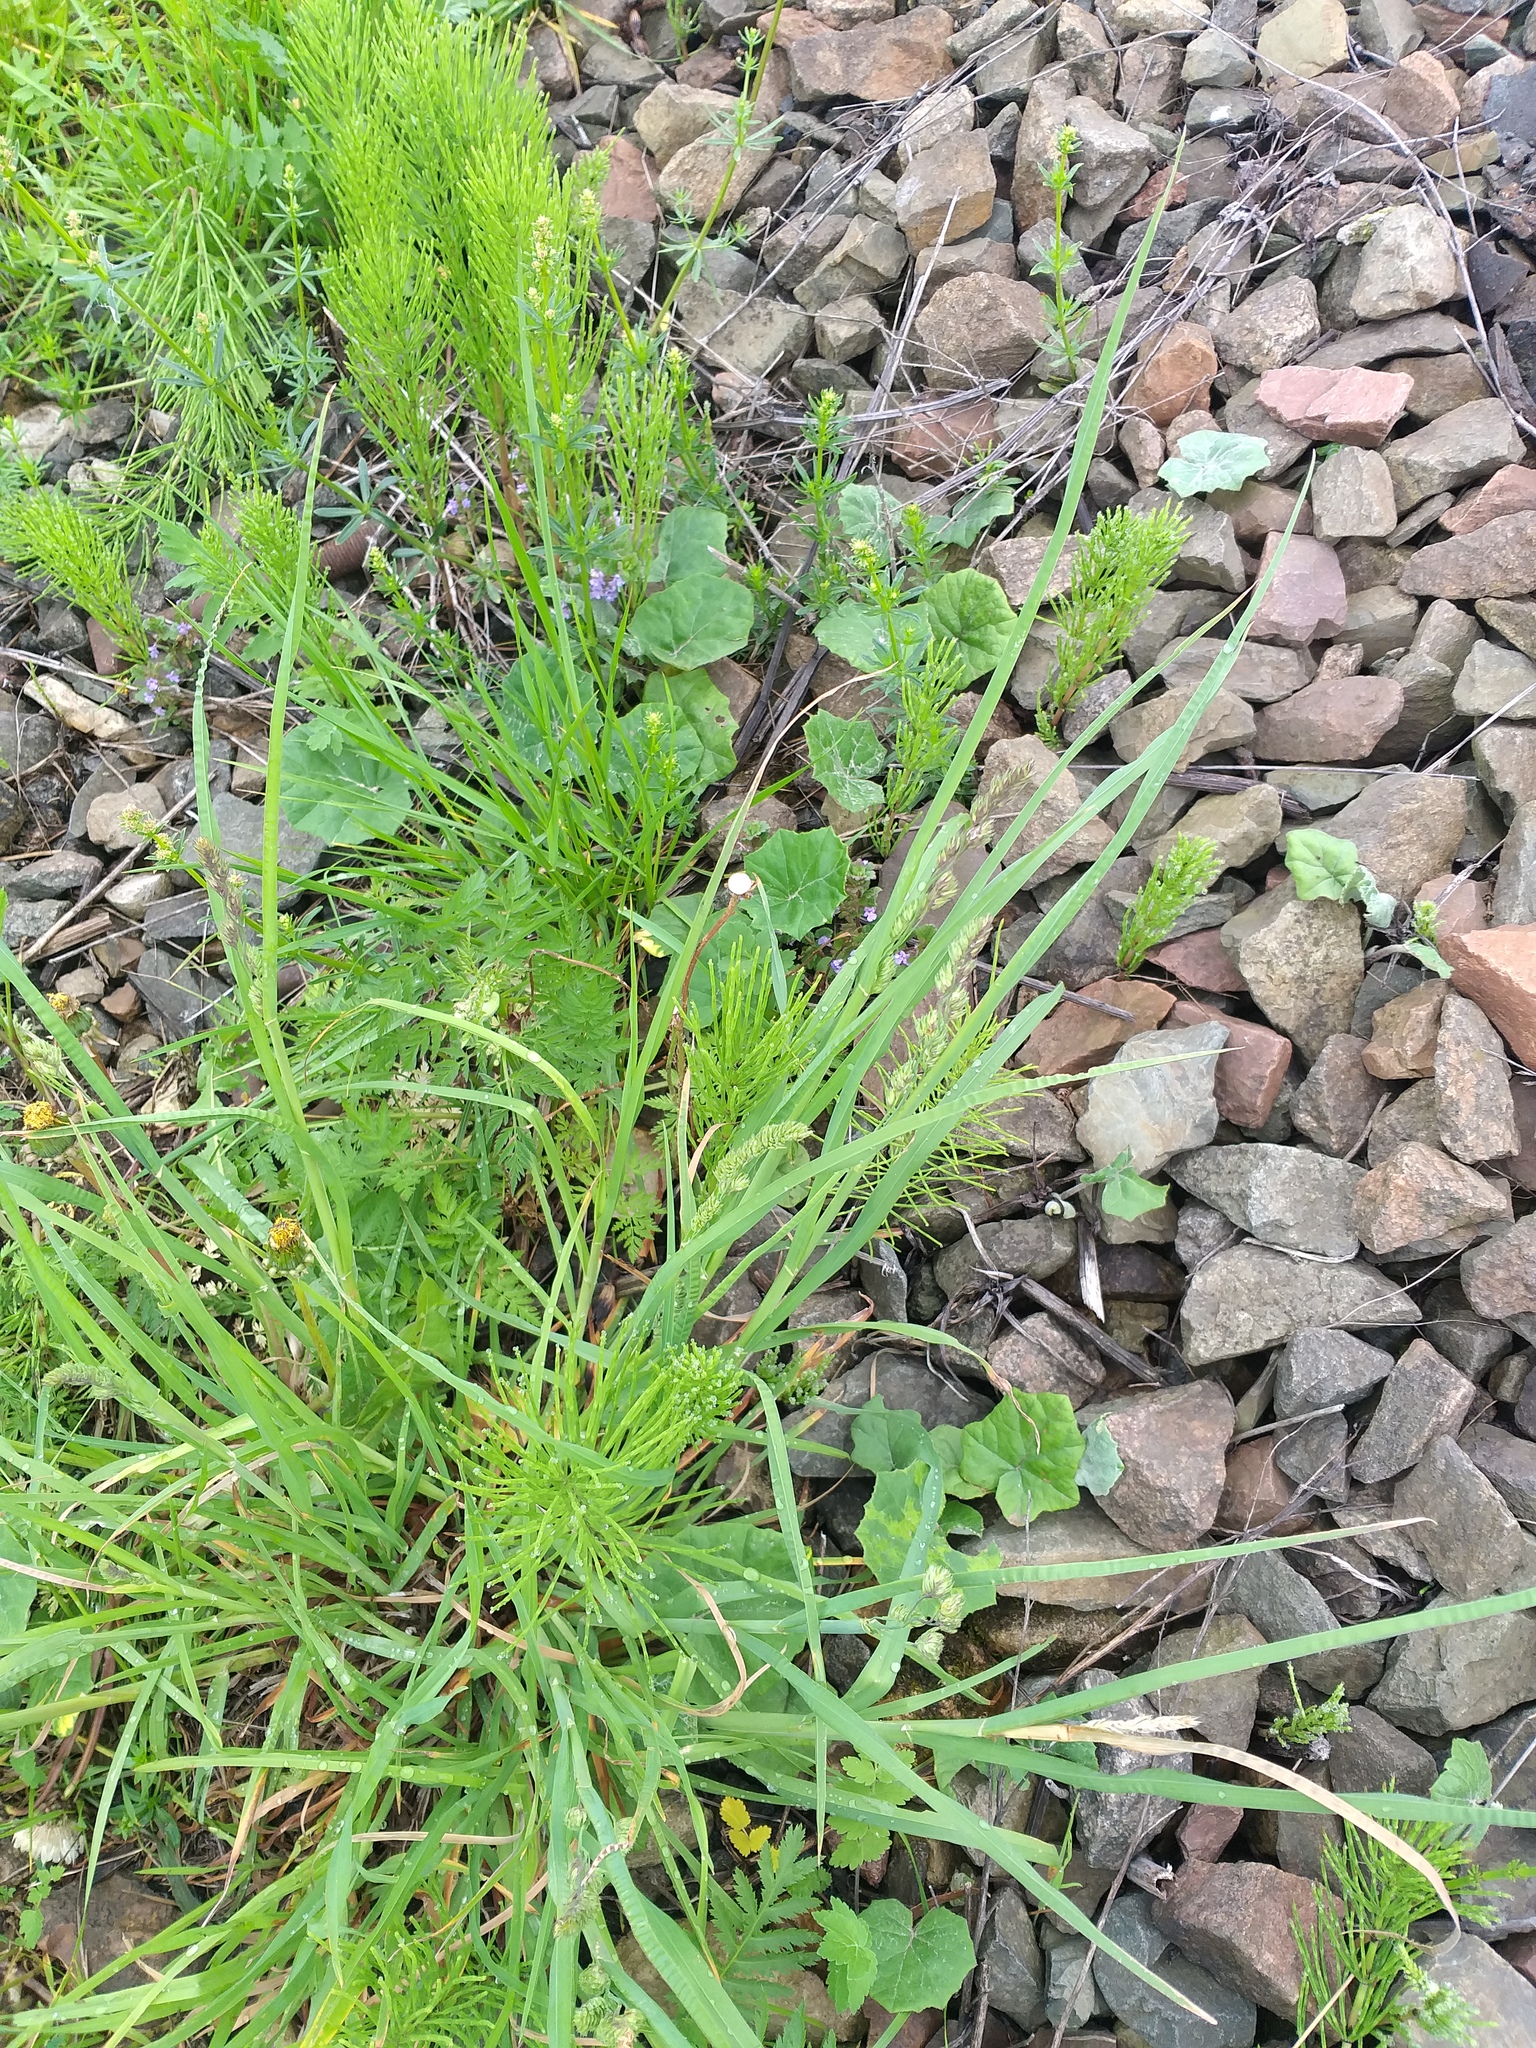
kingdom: Plantae
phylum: Tracheophyta
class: Liliopsida
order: Poales
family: Poaceae
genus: Dactylis
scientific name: Dactylis glomerata
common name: Orchardgrass
